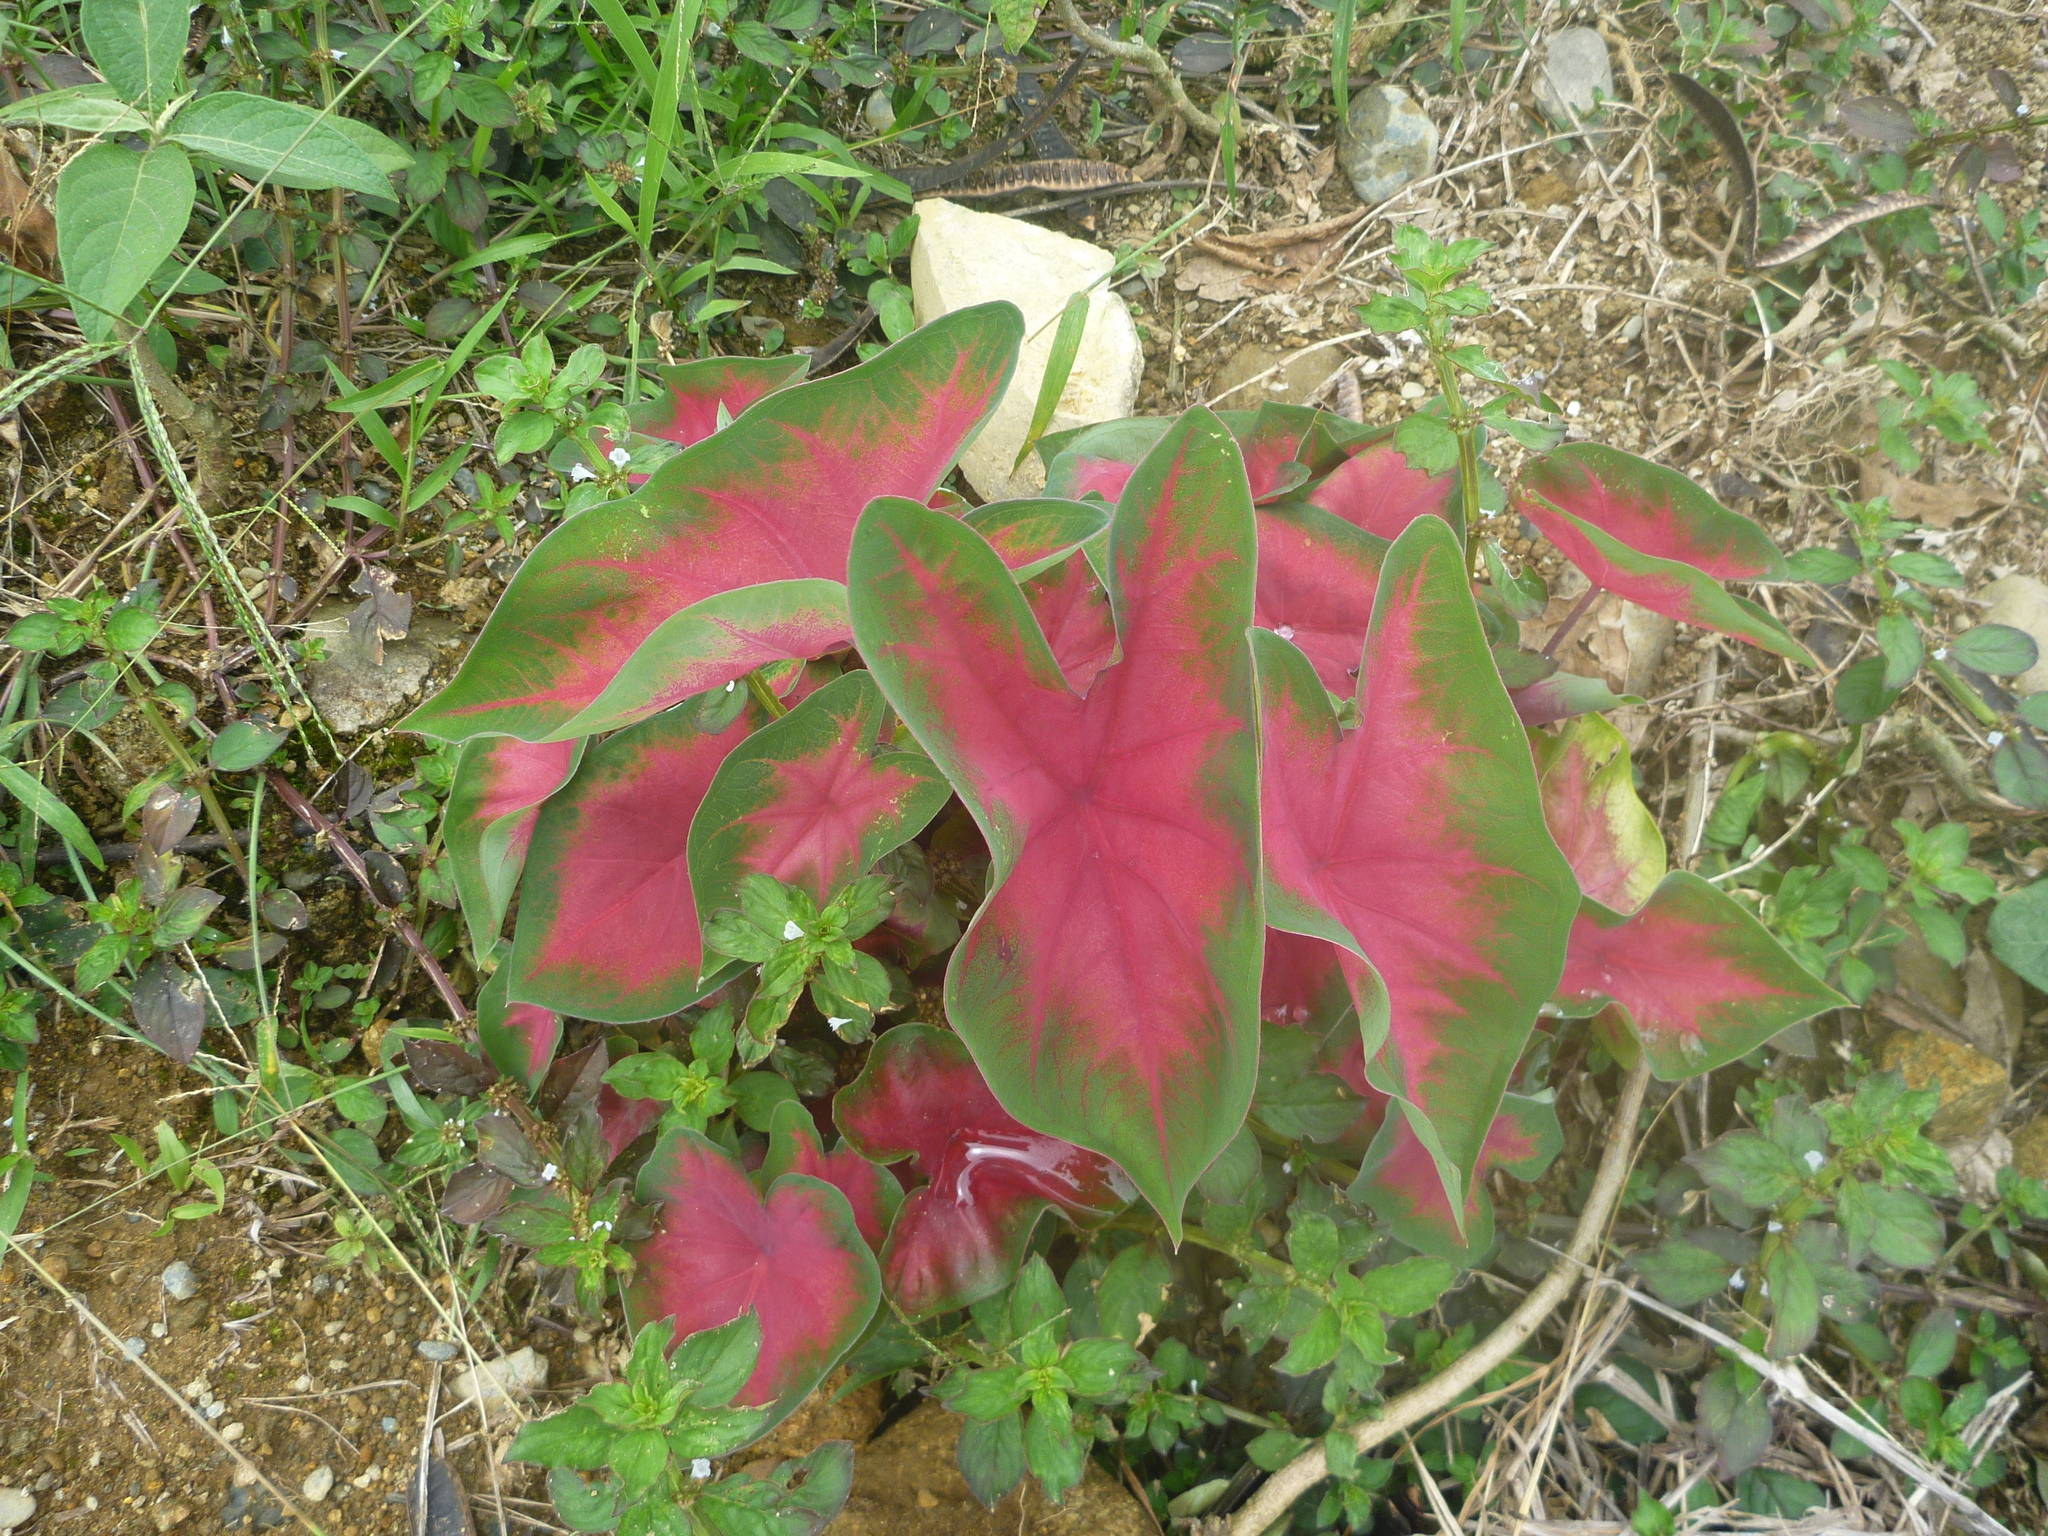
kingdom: Plantae
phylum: Tracheophyta
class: Liliopsida
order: Alismatales
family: Araceae
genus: Caladium
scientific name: Caladium bicolor
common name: Artist's pallet
